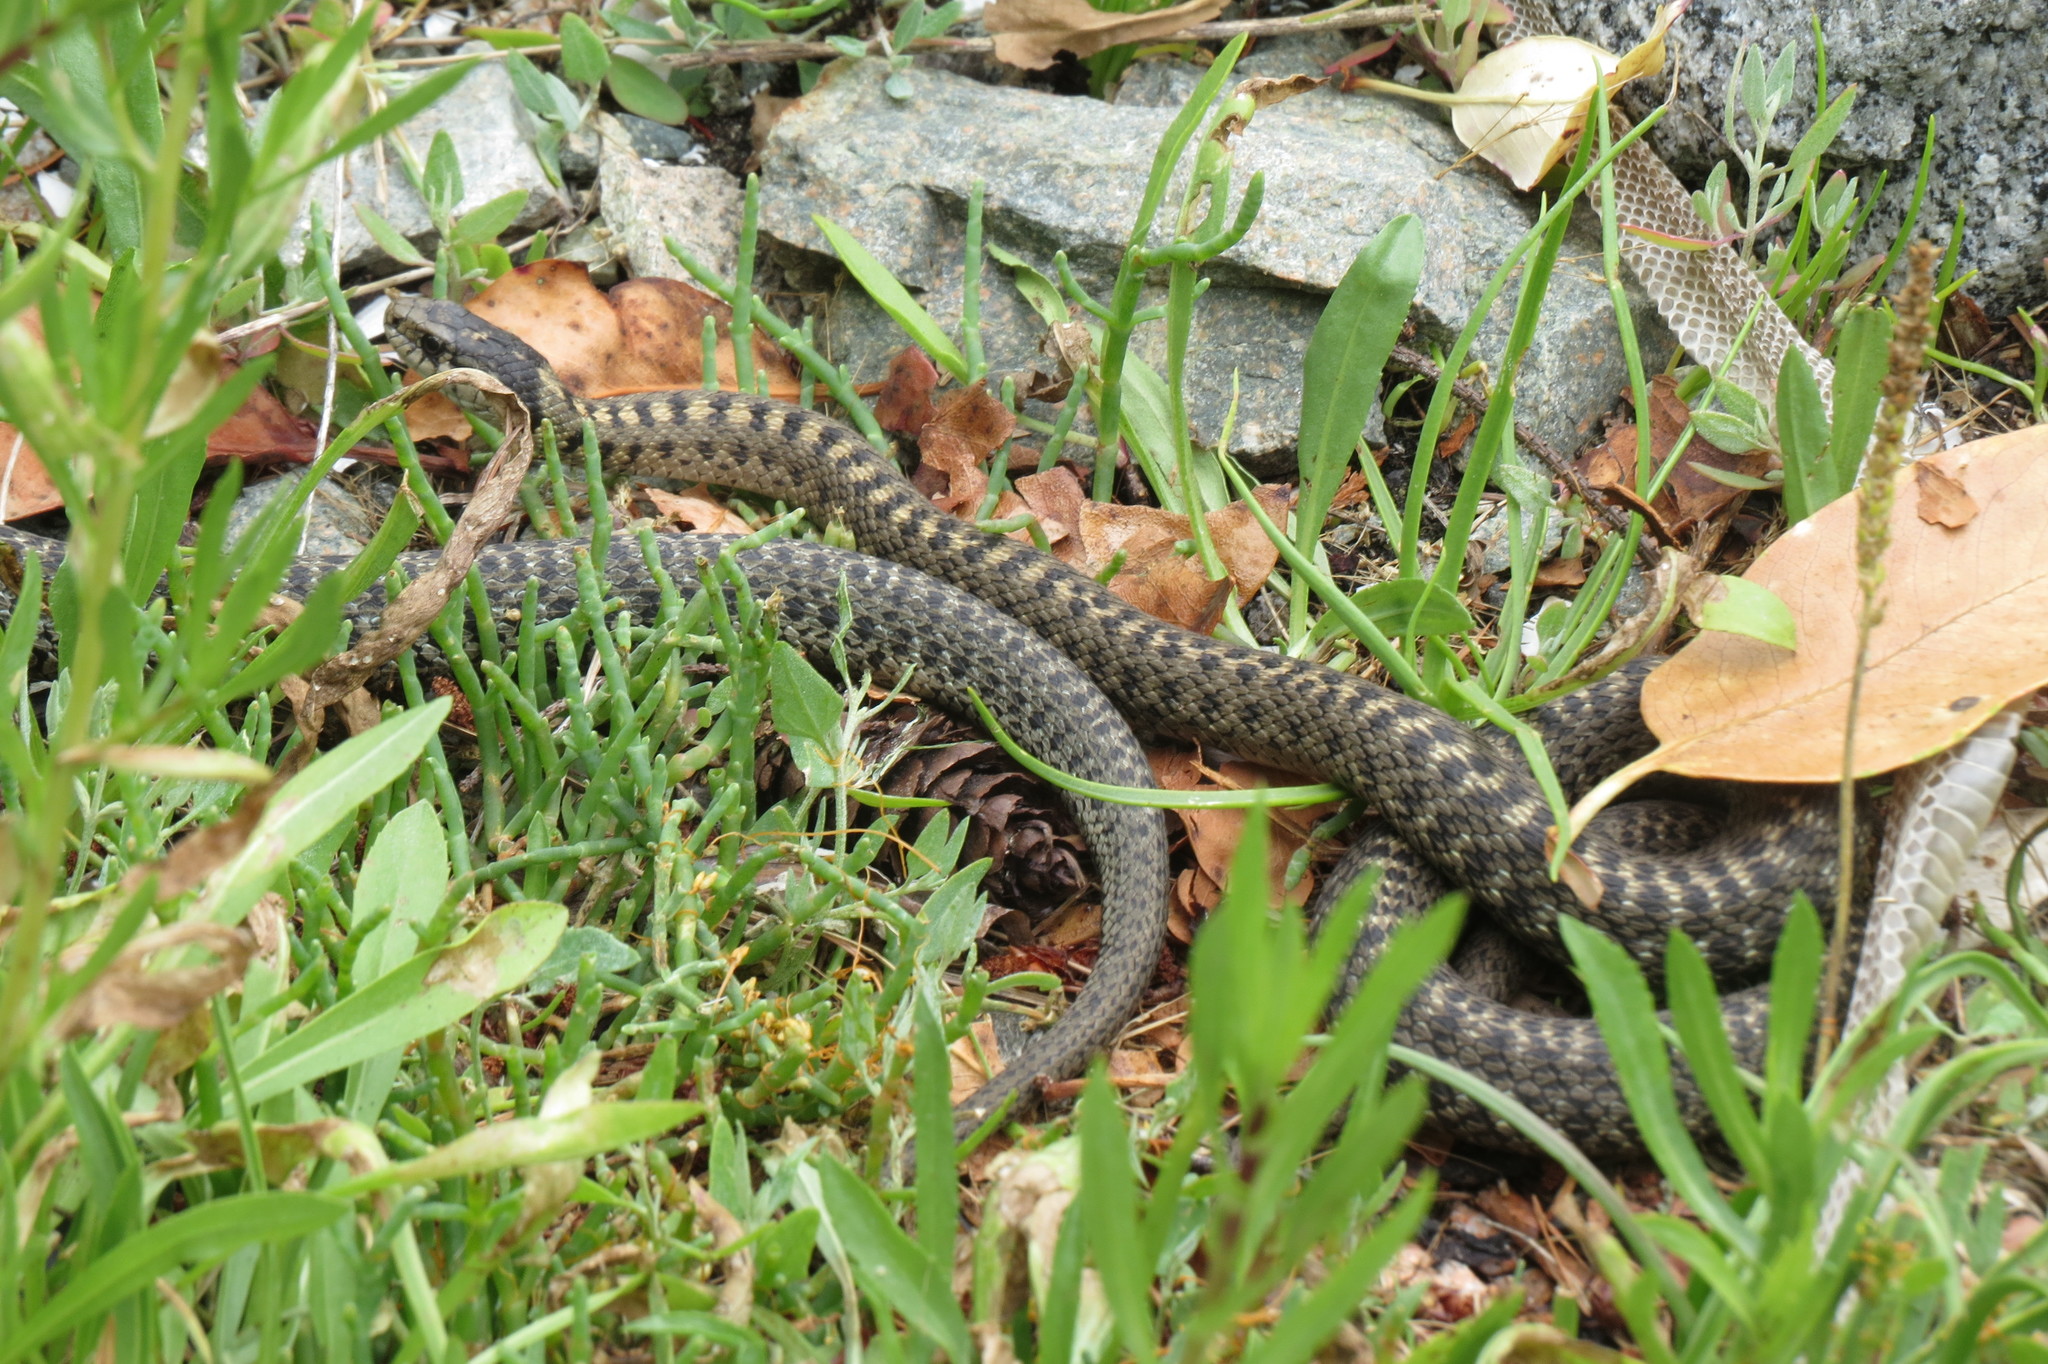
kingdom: Animalia
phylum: Chordata
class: Squamata
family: Colubridae
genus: Thamnophis
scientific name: Thamnophis elegans
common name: Western terrestrial garter snake
